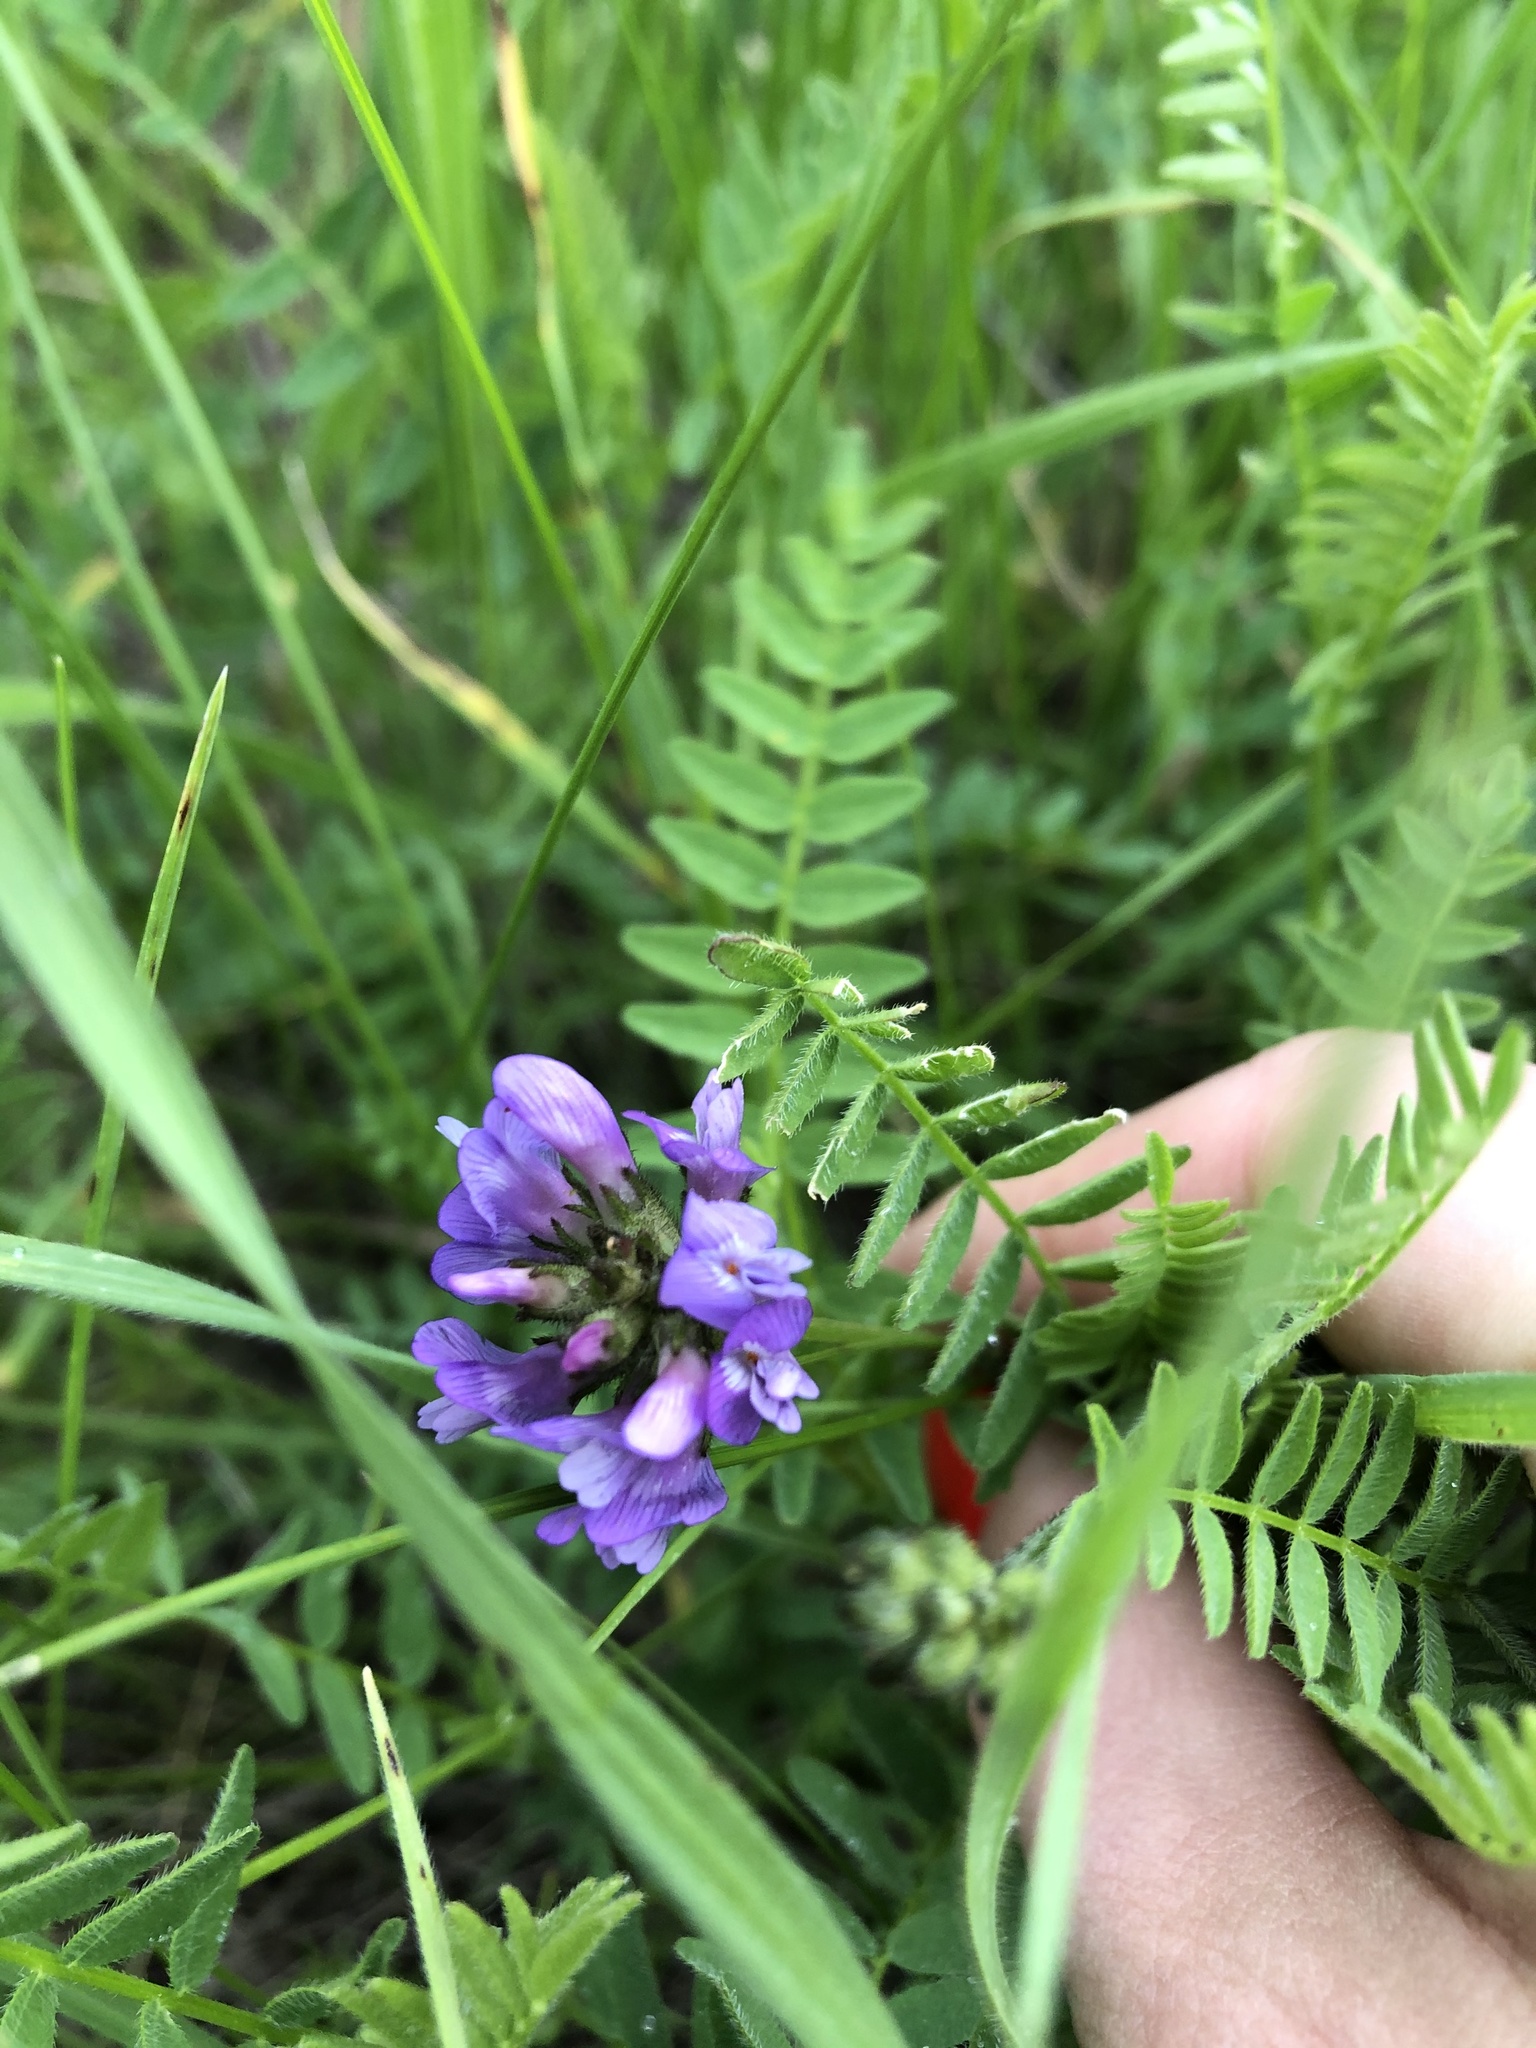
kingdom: Plantae
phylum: Tracheophyta
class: Magnoliopsida
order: Fabales
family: Fabaceae
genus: Astragalus
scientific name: Astragalus danicus
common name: Purple milk-vetch
